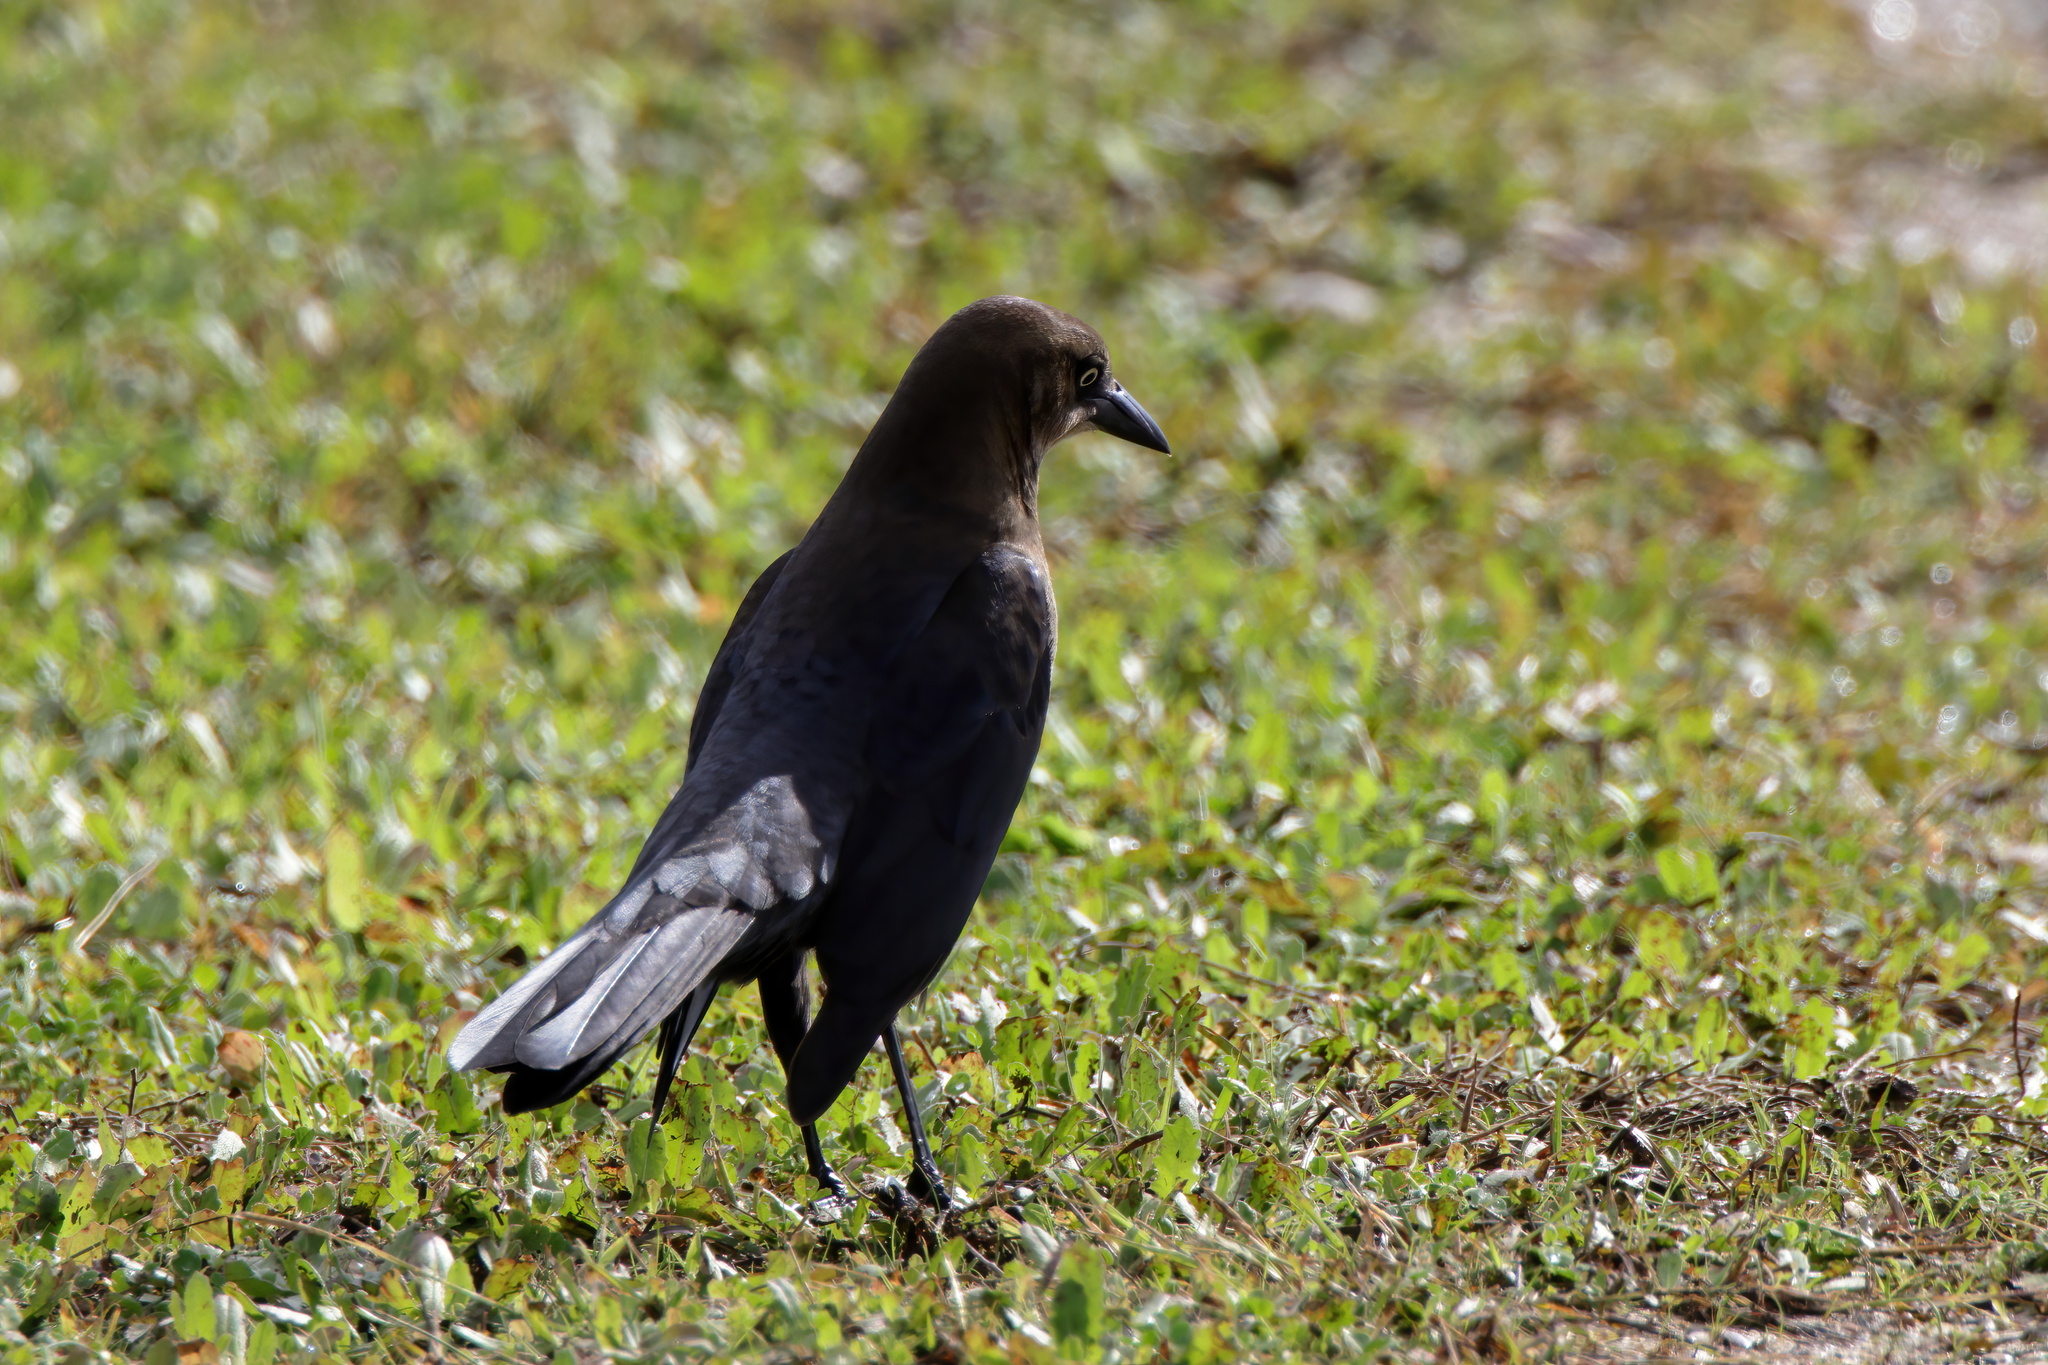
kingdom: Animalia
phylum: Chordata
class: Aves
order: Passeriformes
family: Icteridae
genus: Quiscalus
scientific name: Quiscalus mexicanus
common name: Great-tailed grackle
